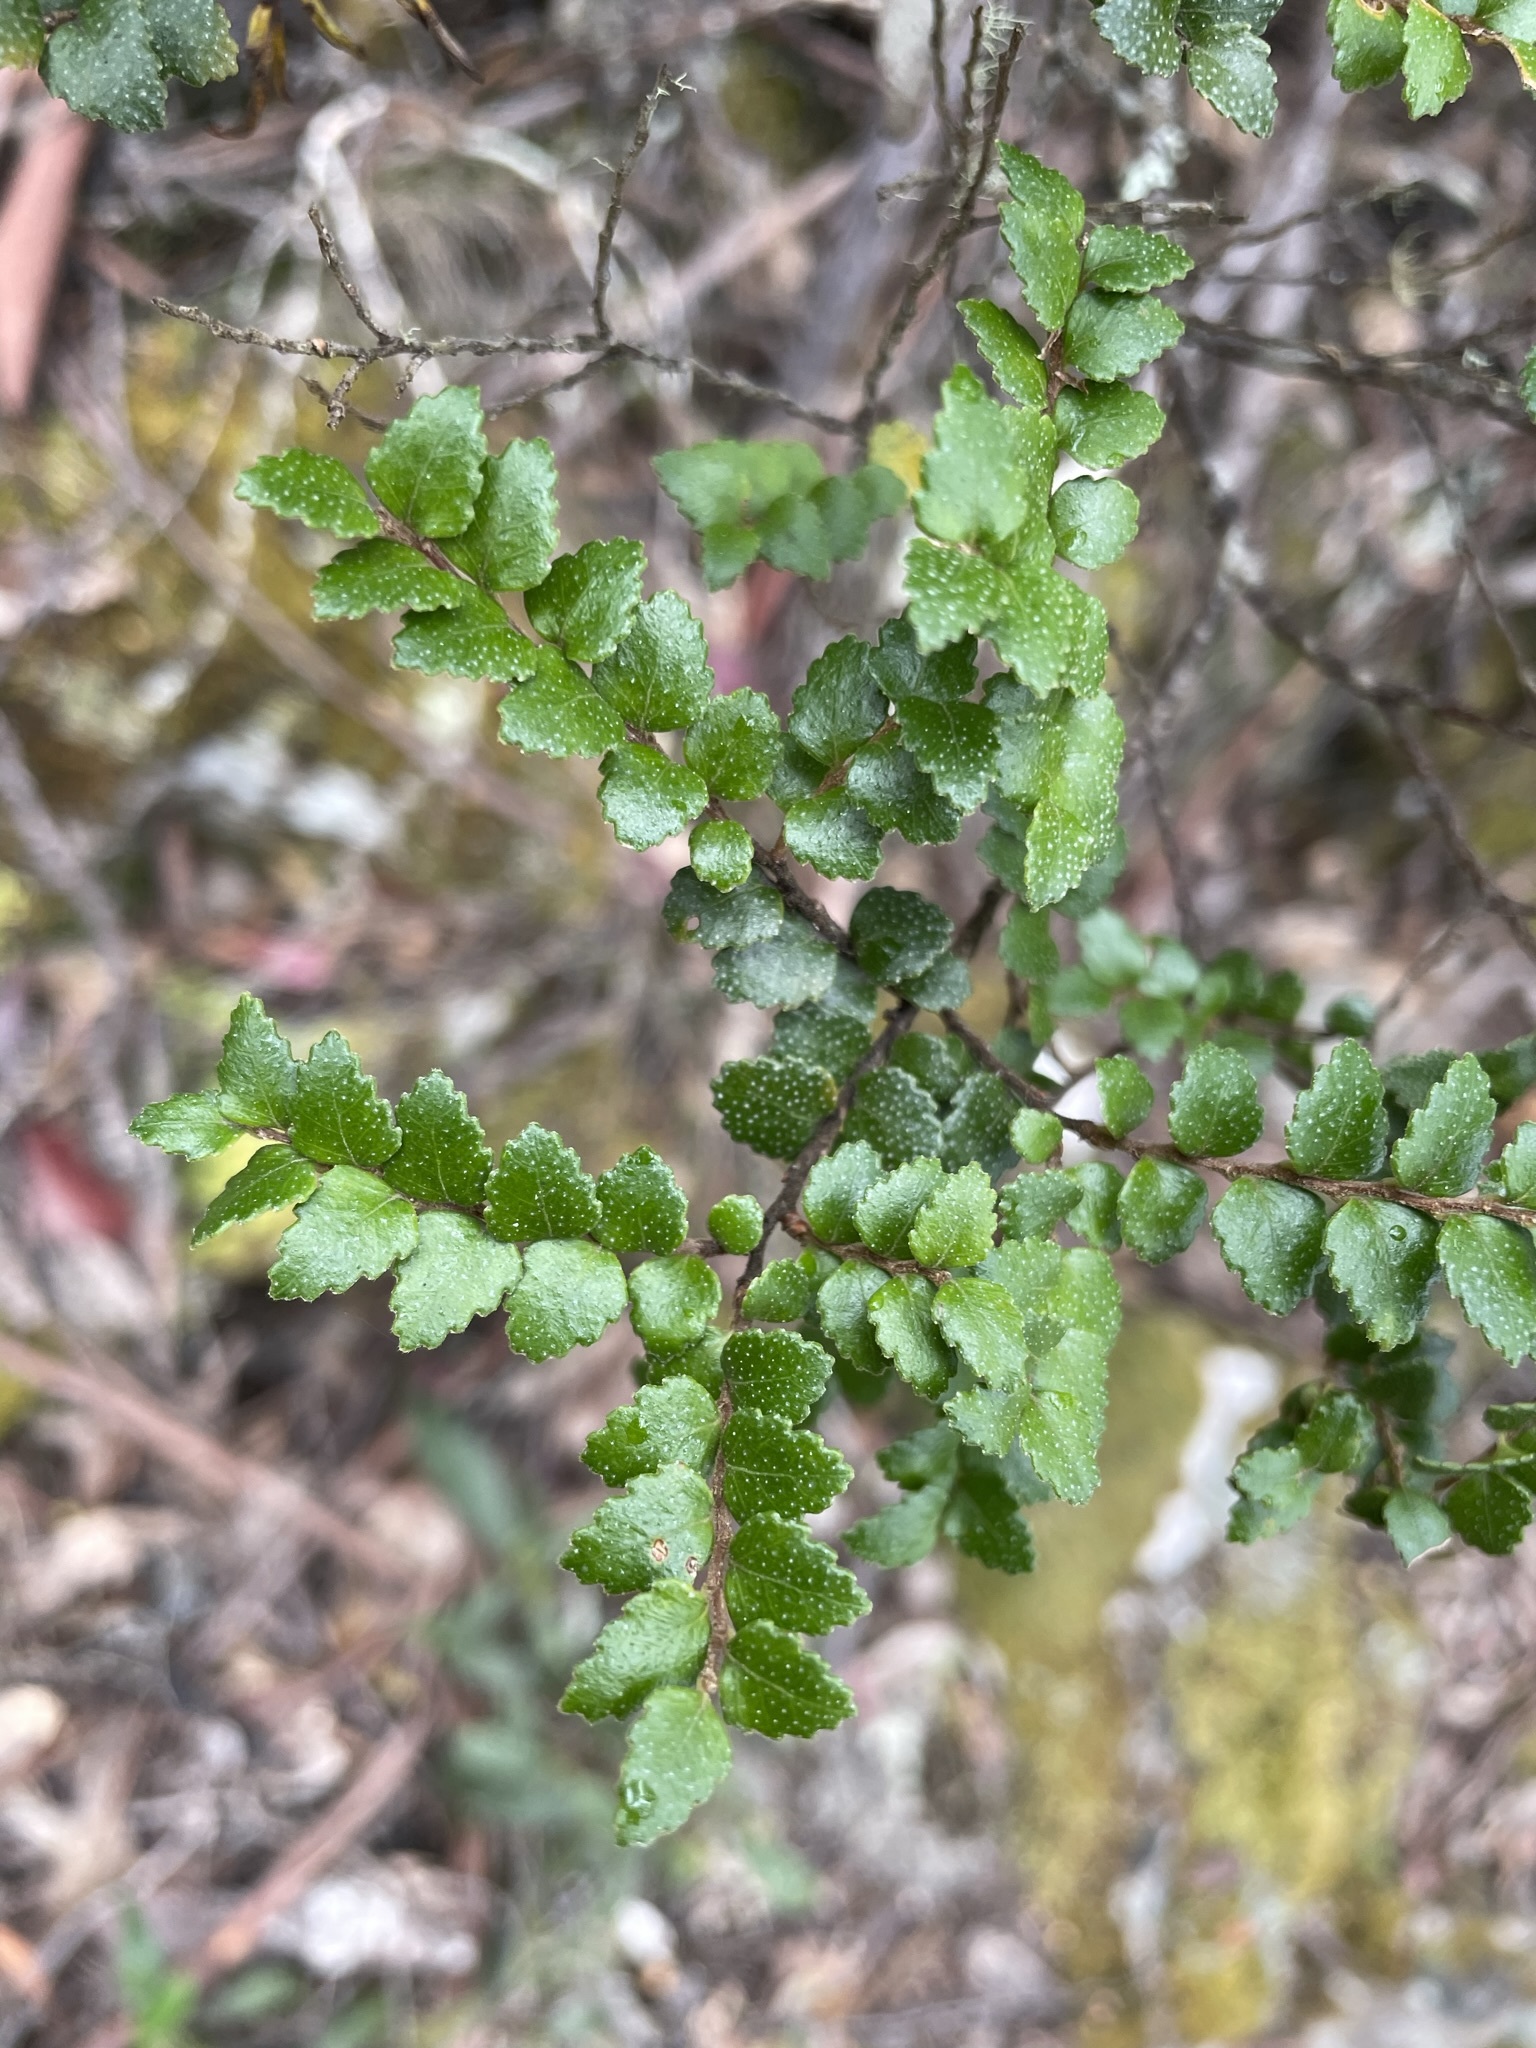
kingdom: Plantae
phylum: Tracheophyta
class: Magnoliopsida
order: Fagales
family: Nothofagaceae
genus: Nothofagus
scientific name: Nothofagus cunninghamii
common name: Myrtle beech
